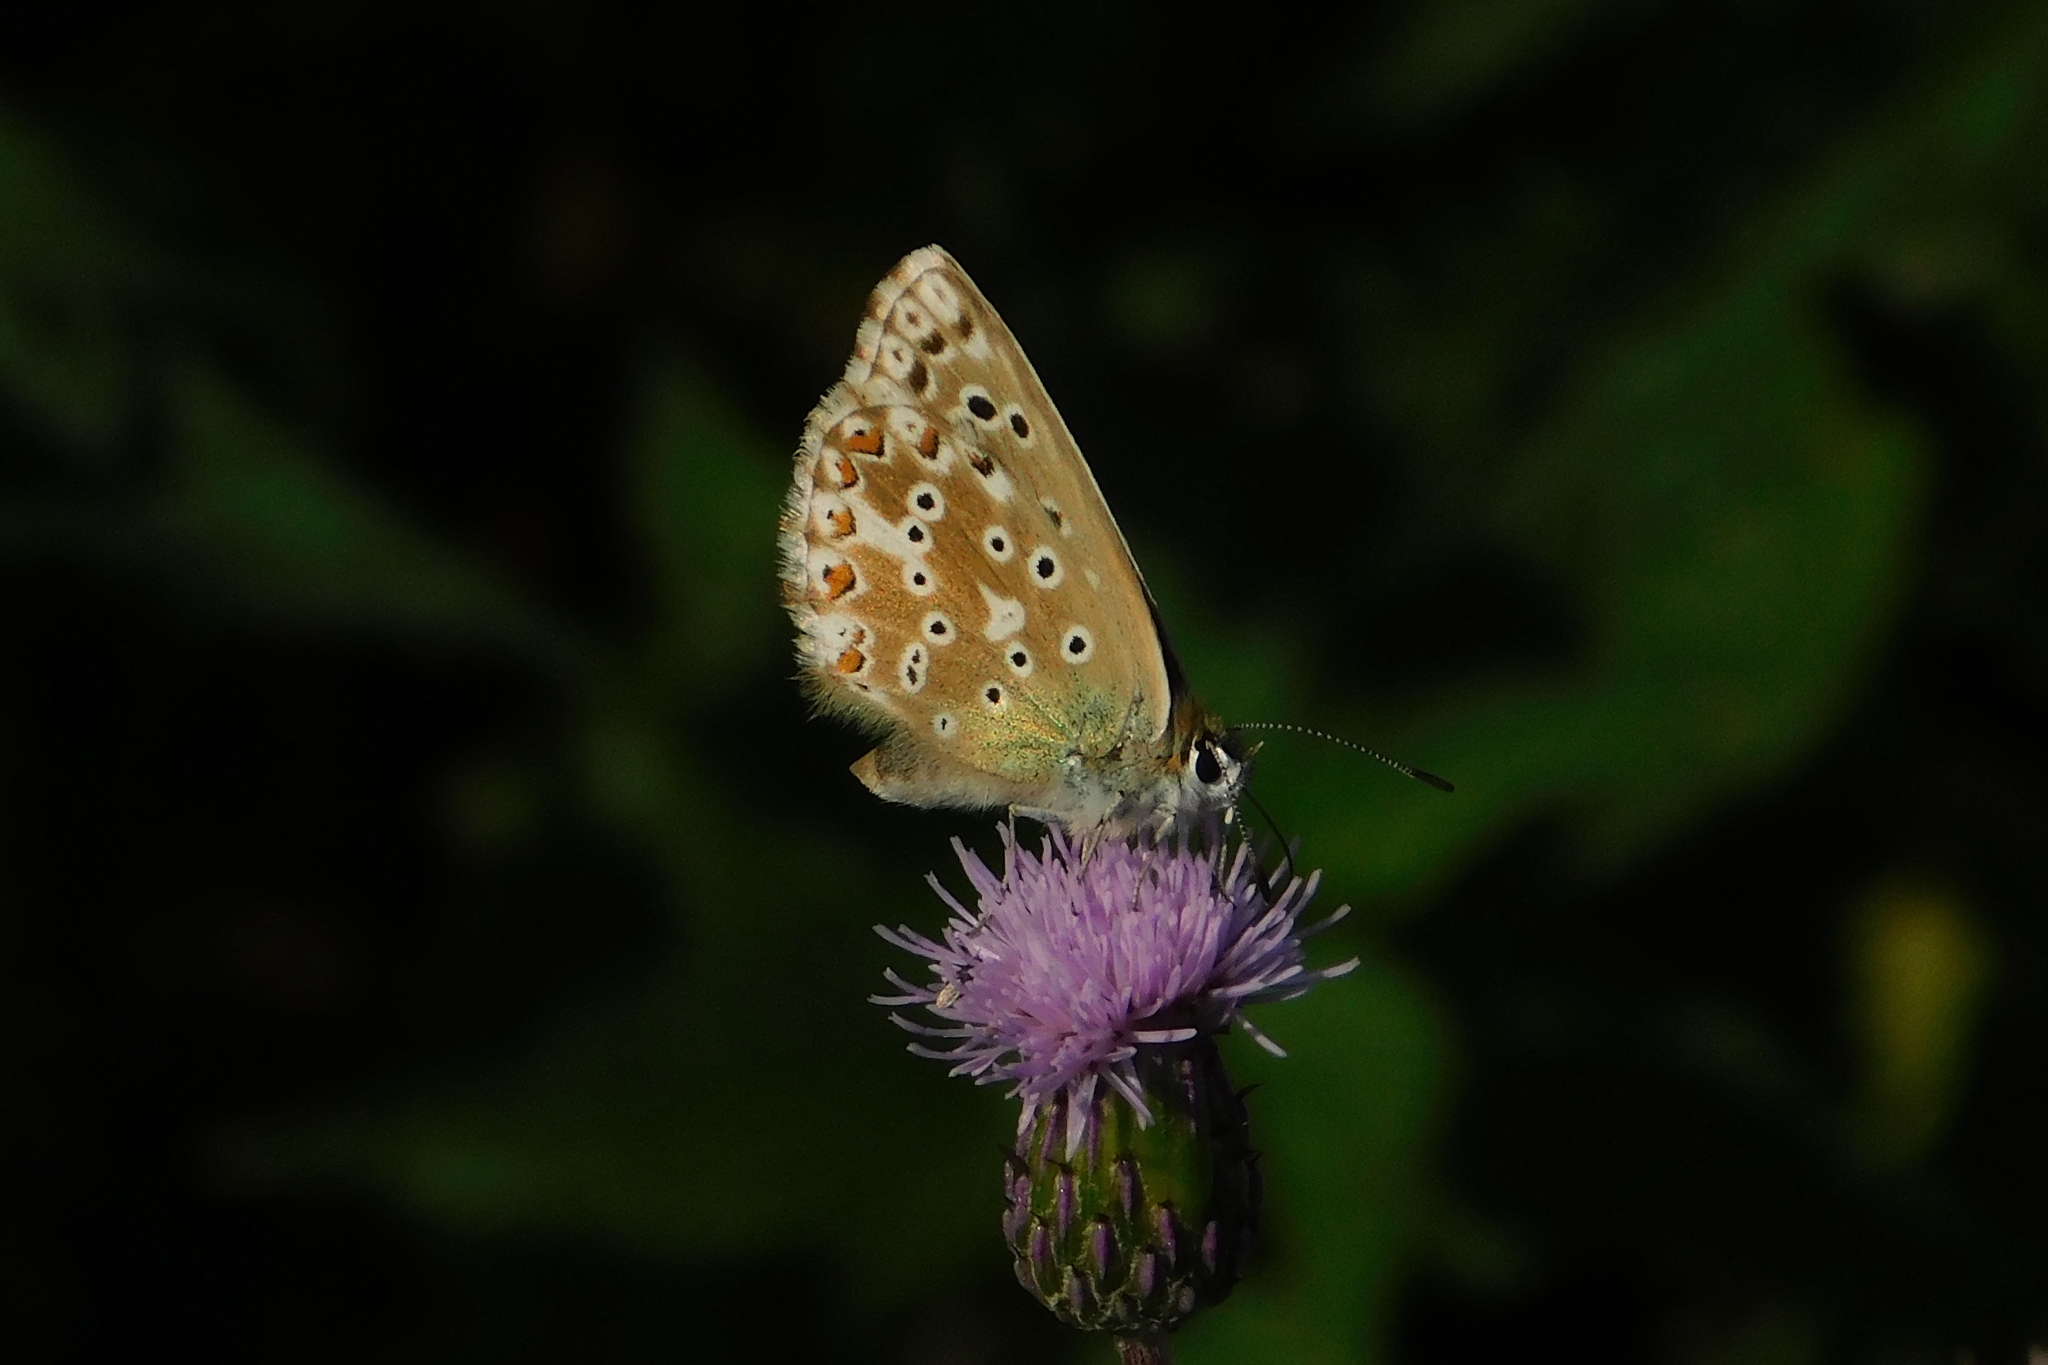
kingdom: Animalia
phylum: Arthropoda
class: Insecta
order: Lepidoptera
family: Lycaenidae
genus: Lysandra
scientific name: Lysandra coridon
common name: Chalkhill blue
